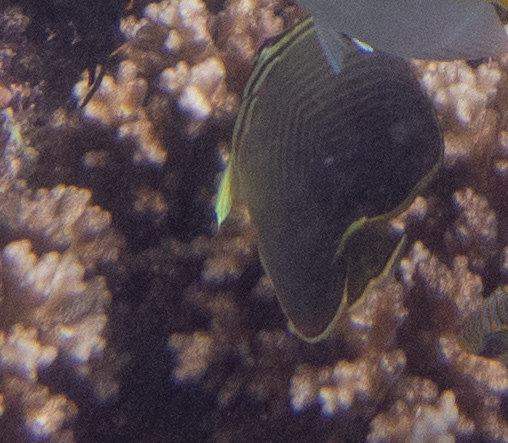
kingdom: Animalia
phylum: Chordata
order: Perciformes
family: Chaetodontidae
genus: Chaetodon
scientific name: Chaetodon baronessa
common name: Triangular butterflyfish
